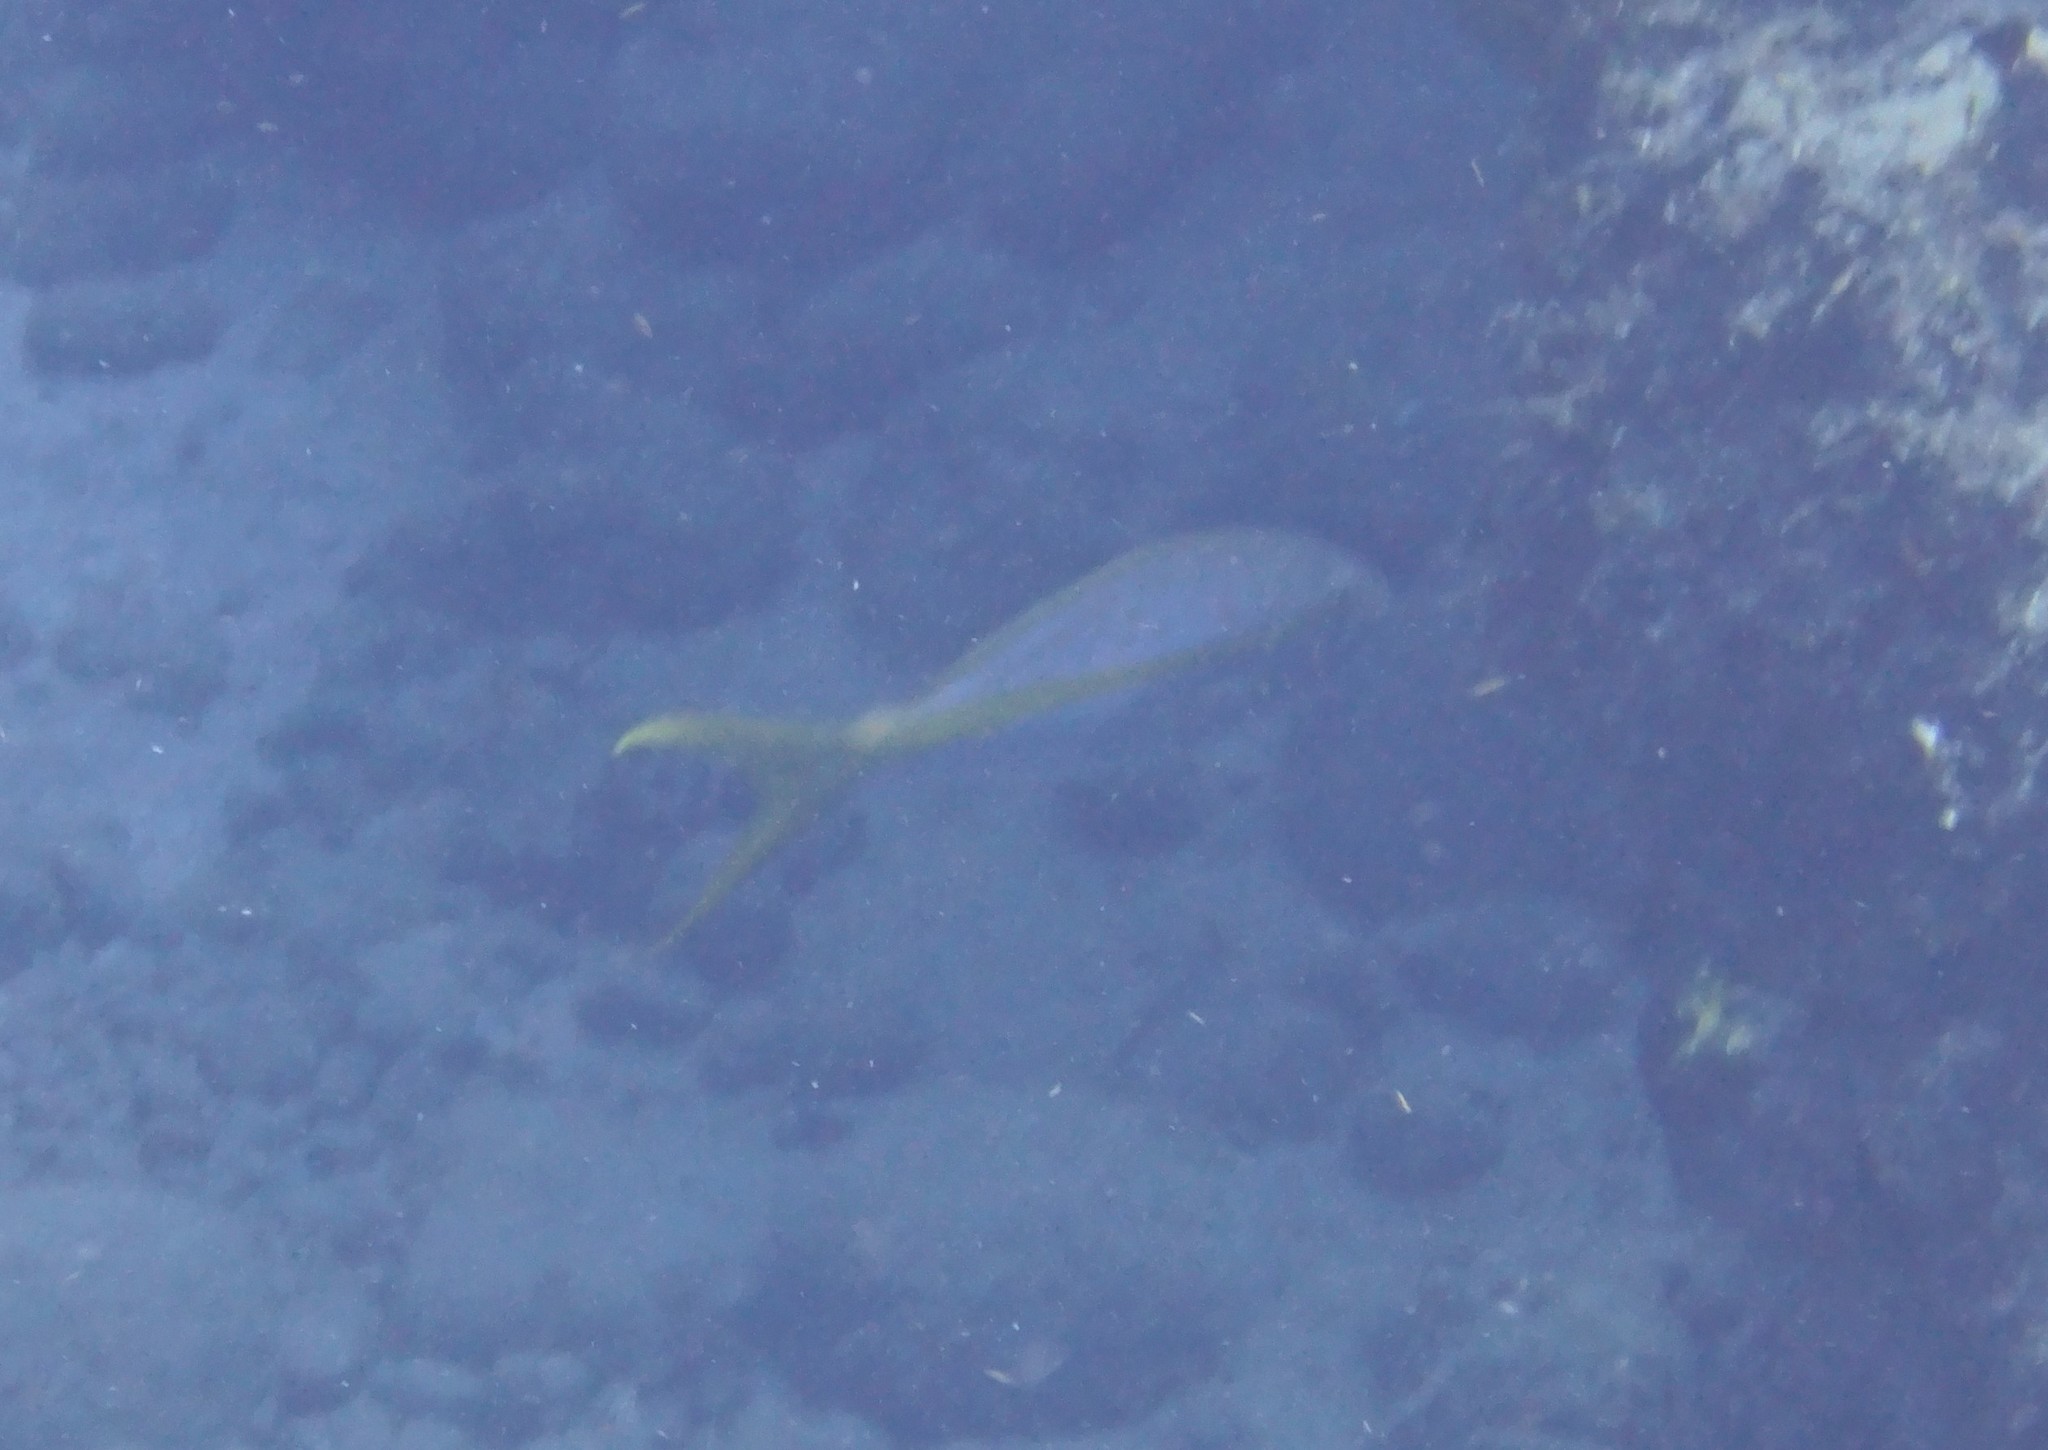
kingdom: Animalia
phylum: Chordata
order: Perciformes
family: Lutjanidae
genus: Ocyurus
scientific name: Ocyurus chrysurus
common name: Yellowtail snapper
